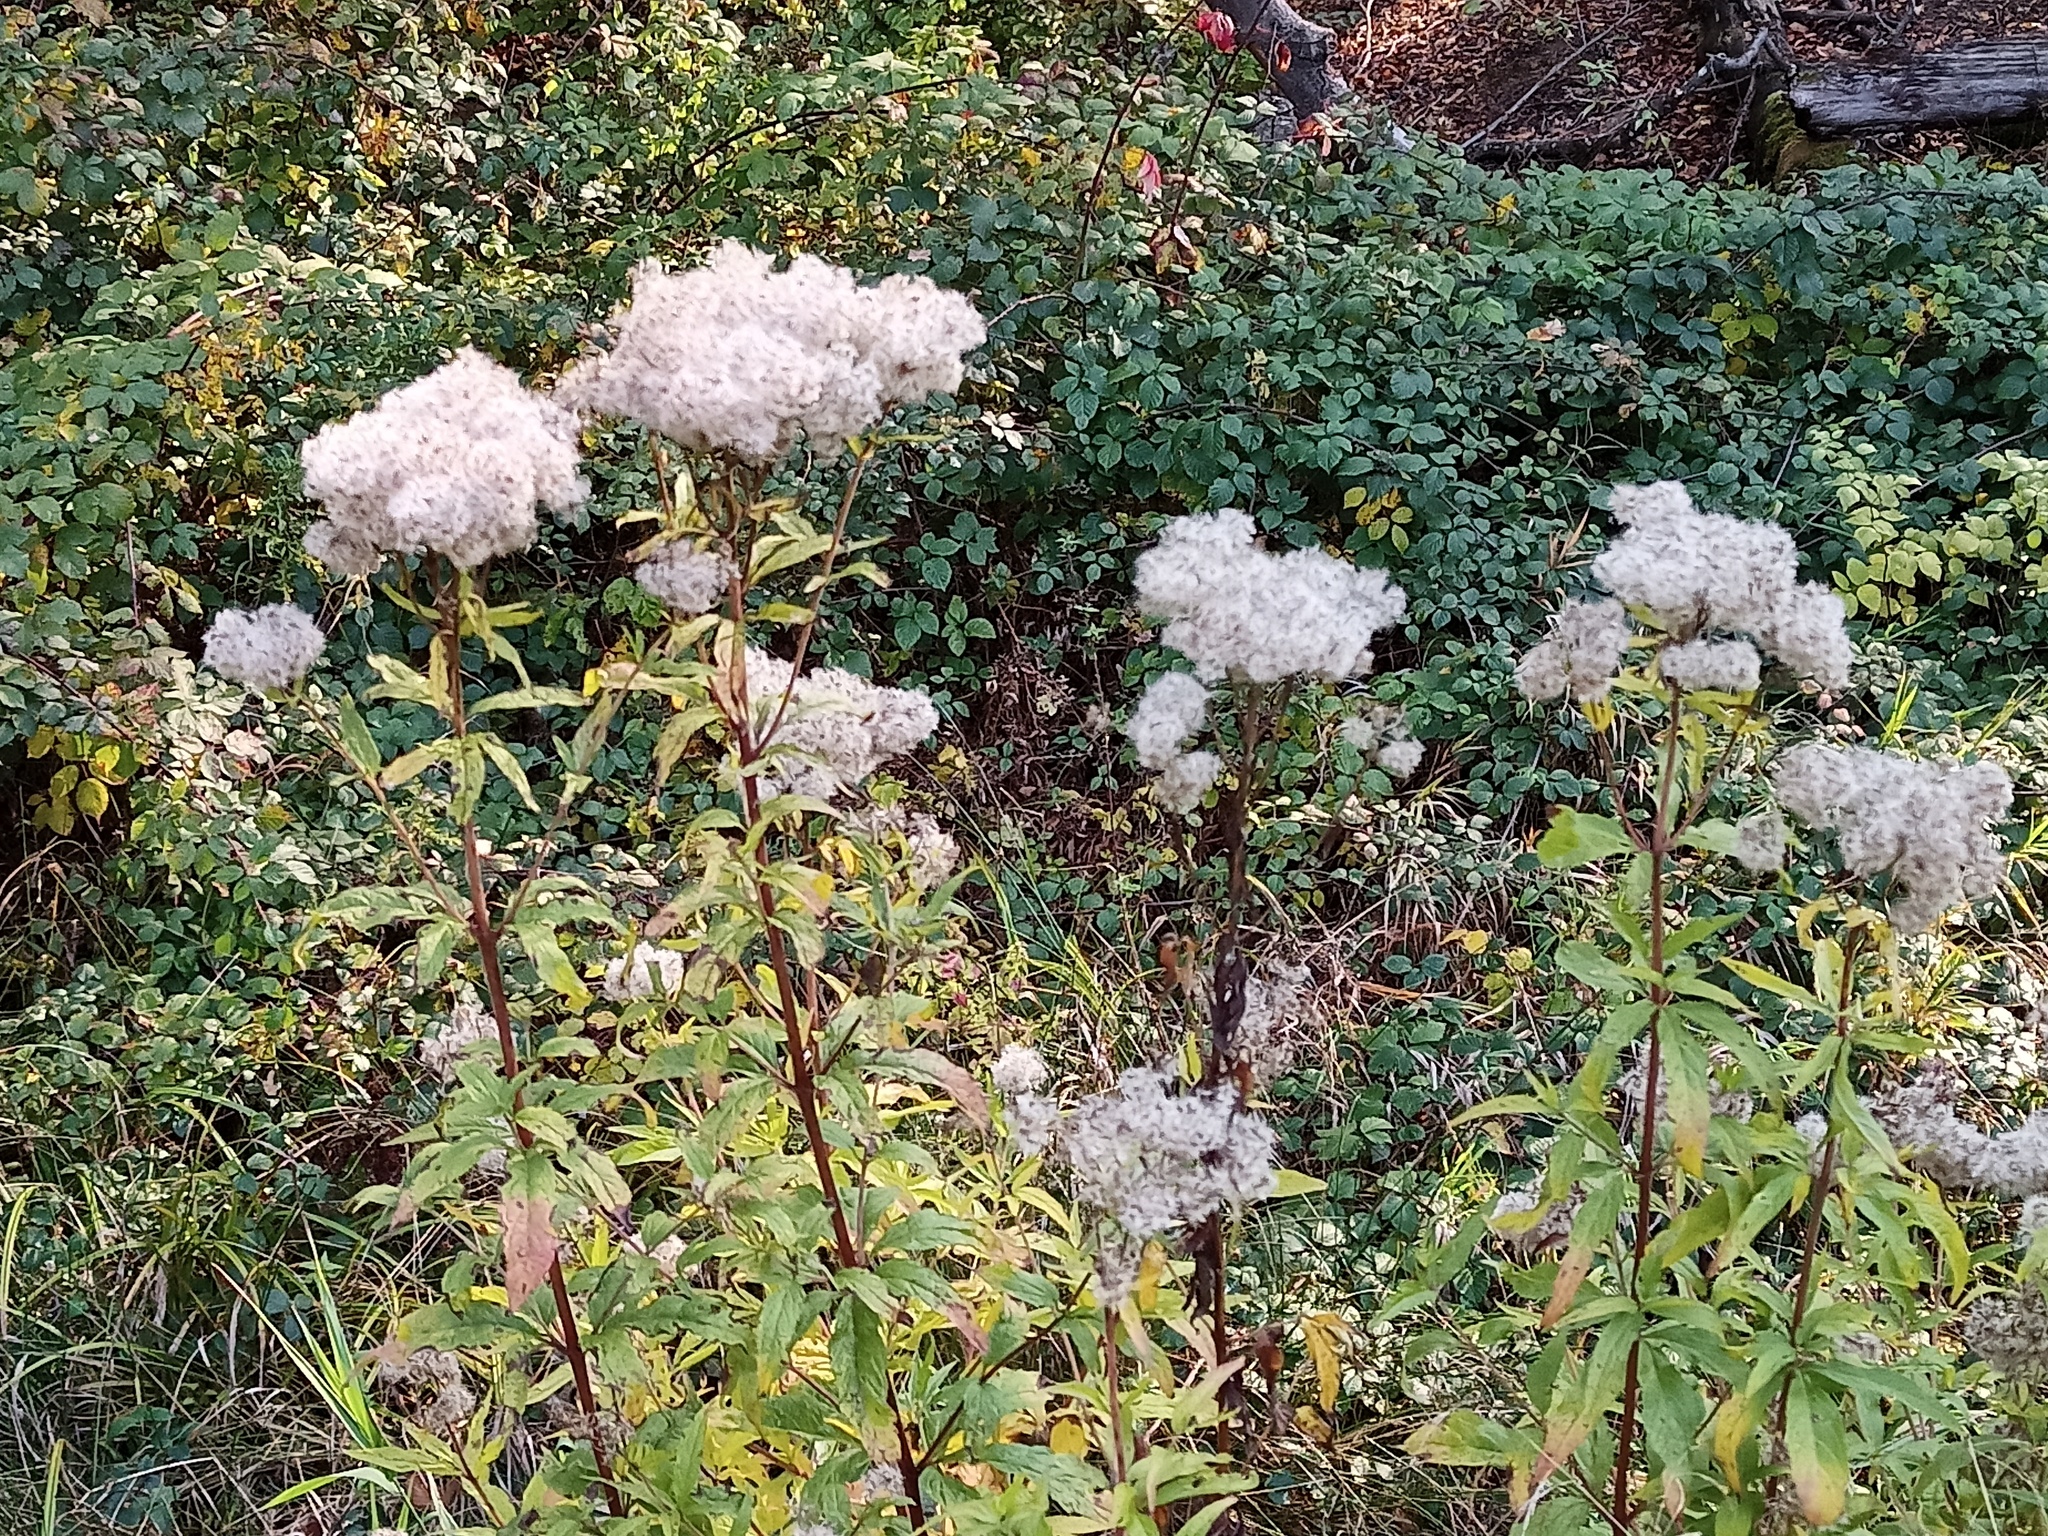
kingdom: Plantae
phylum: Tracheophyta
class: Magnoliopsida
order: Asterales
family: Asteraceae
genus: Eupatorium
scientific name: Eupatorium cannabinum
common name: Hemp-agrimony
